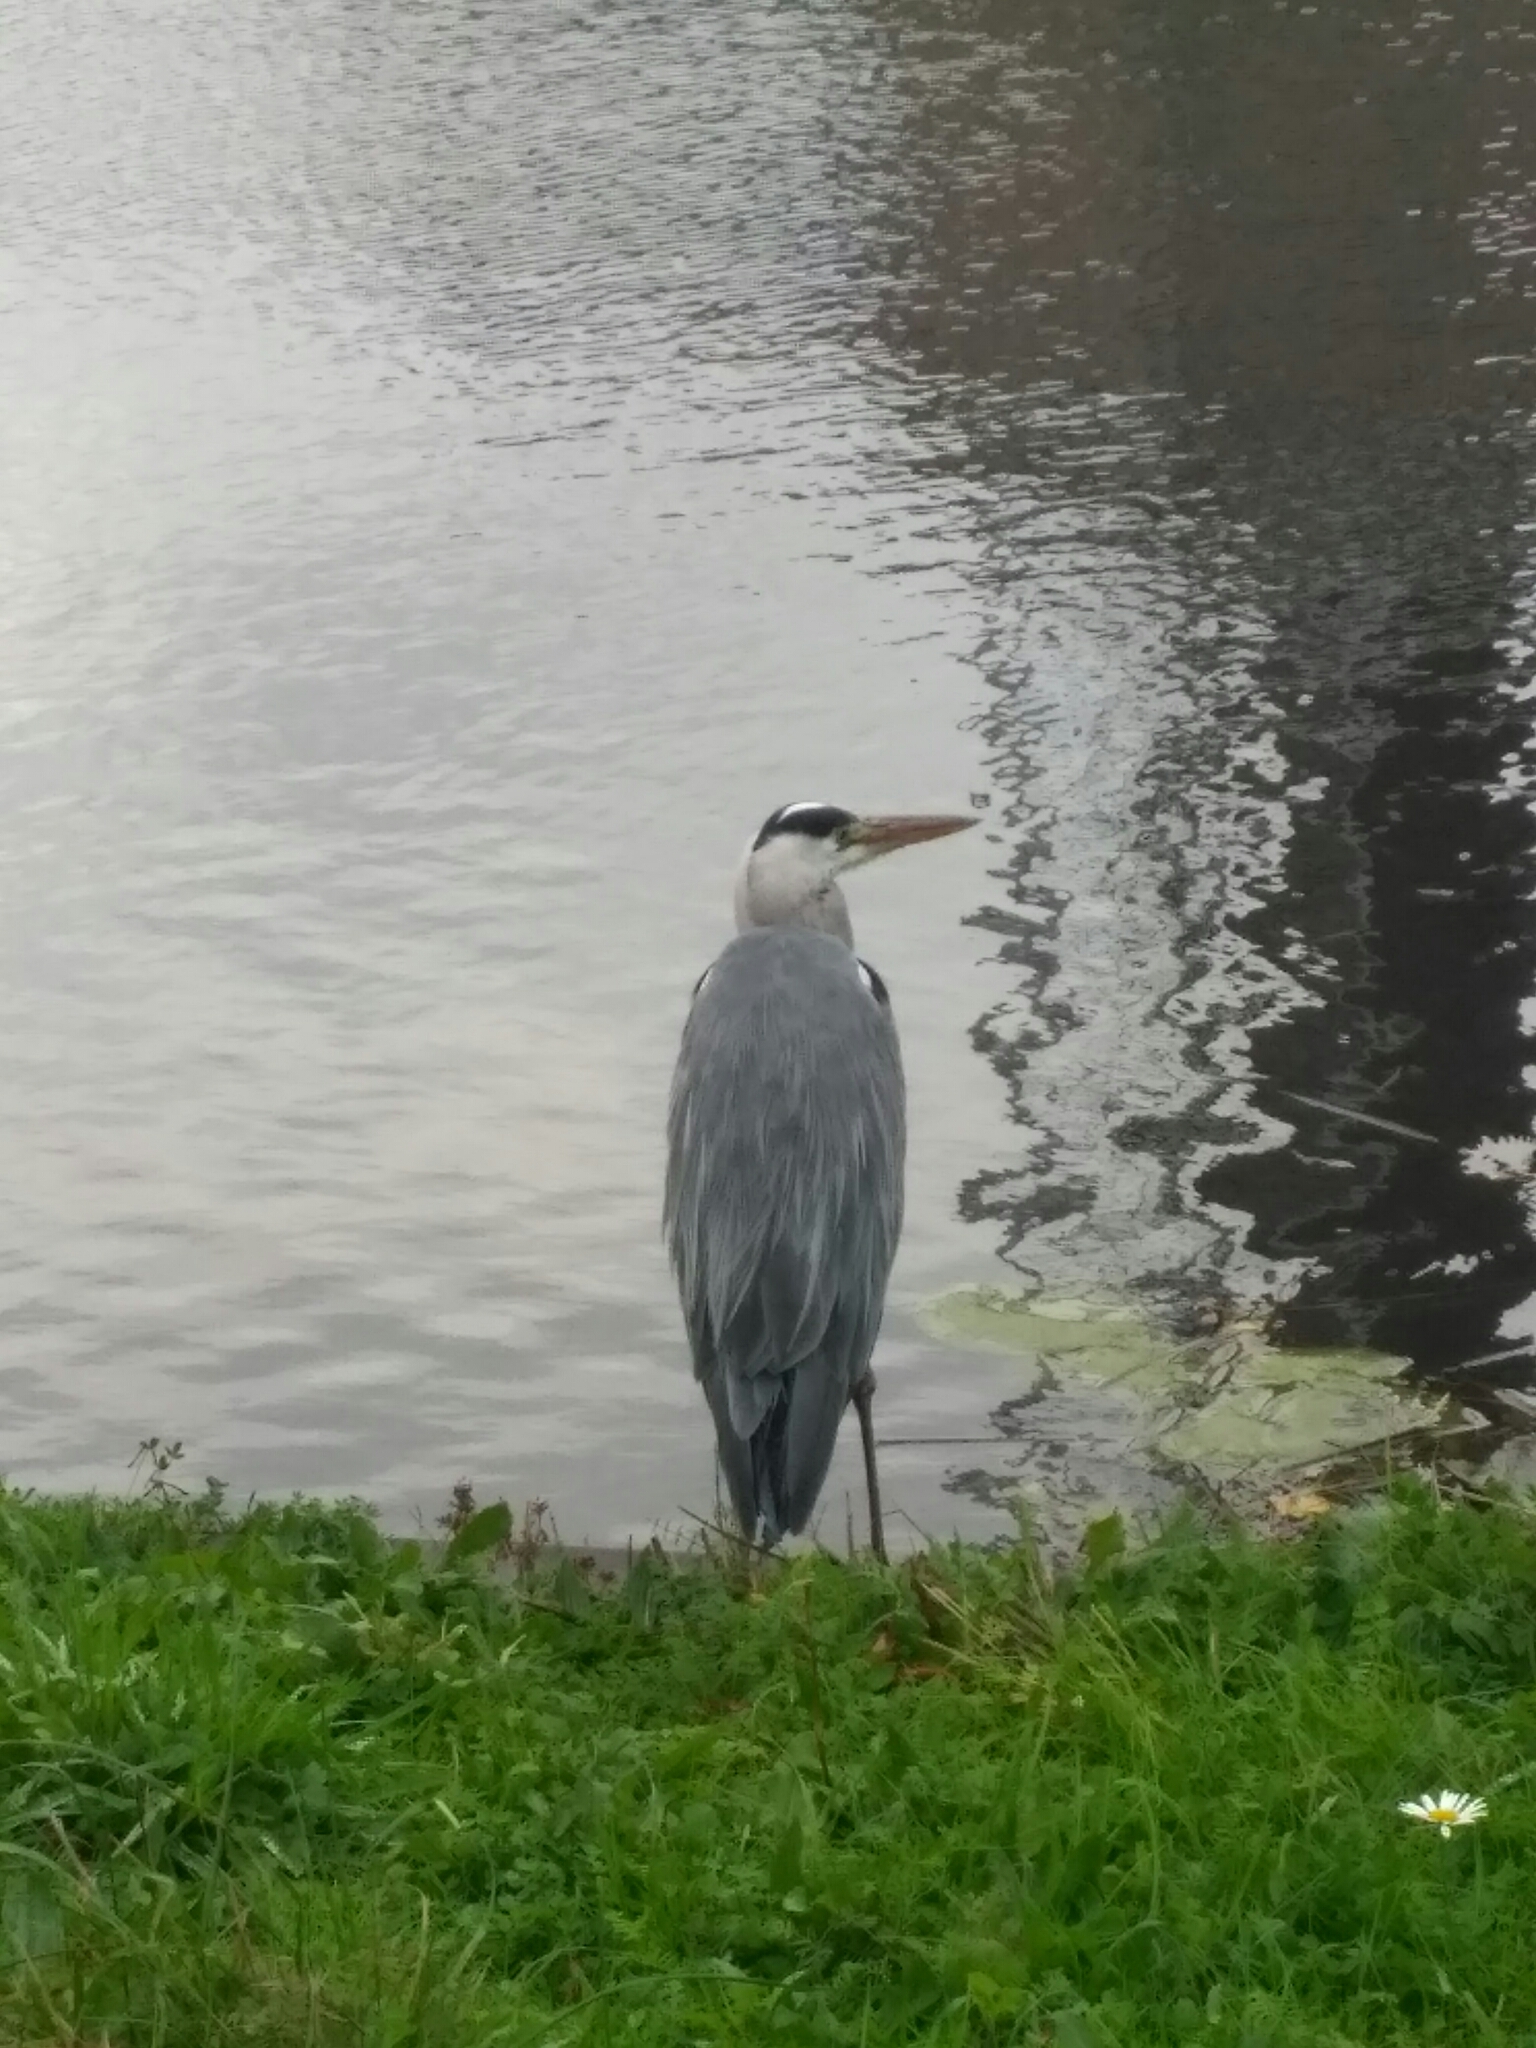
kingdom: Animalia
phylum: Chordata
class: Aves
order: Pelecaniformes
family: Ardeidae
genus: Ardea
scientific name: Ardea cinerea
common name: Grey heron
